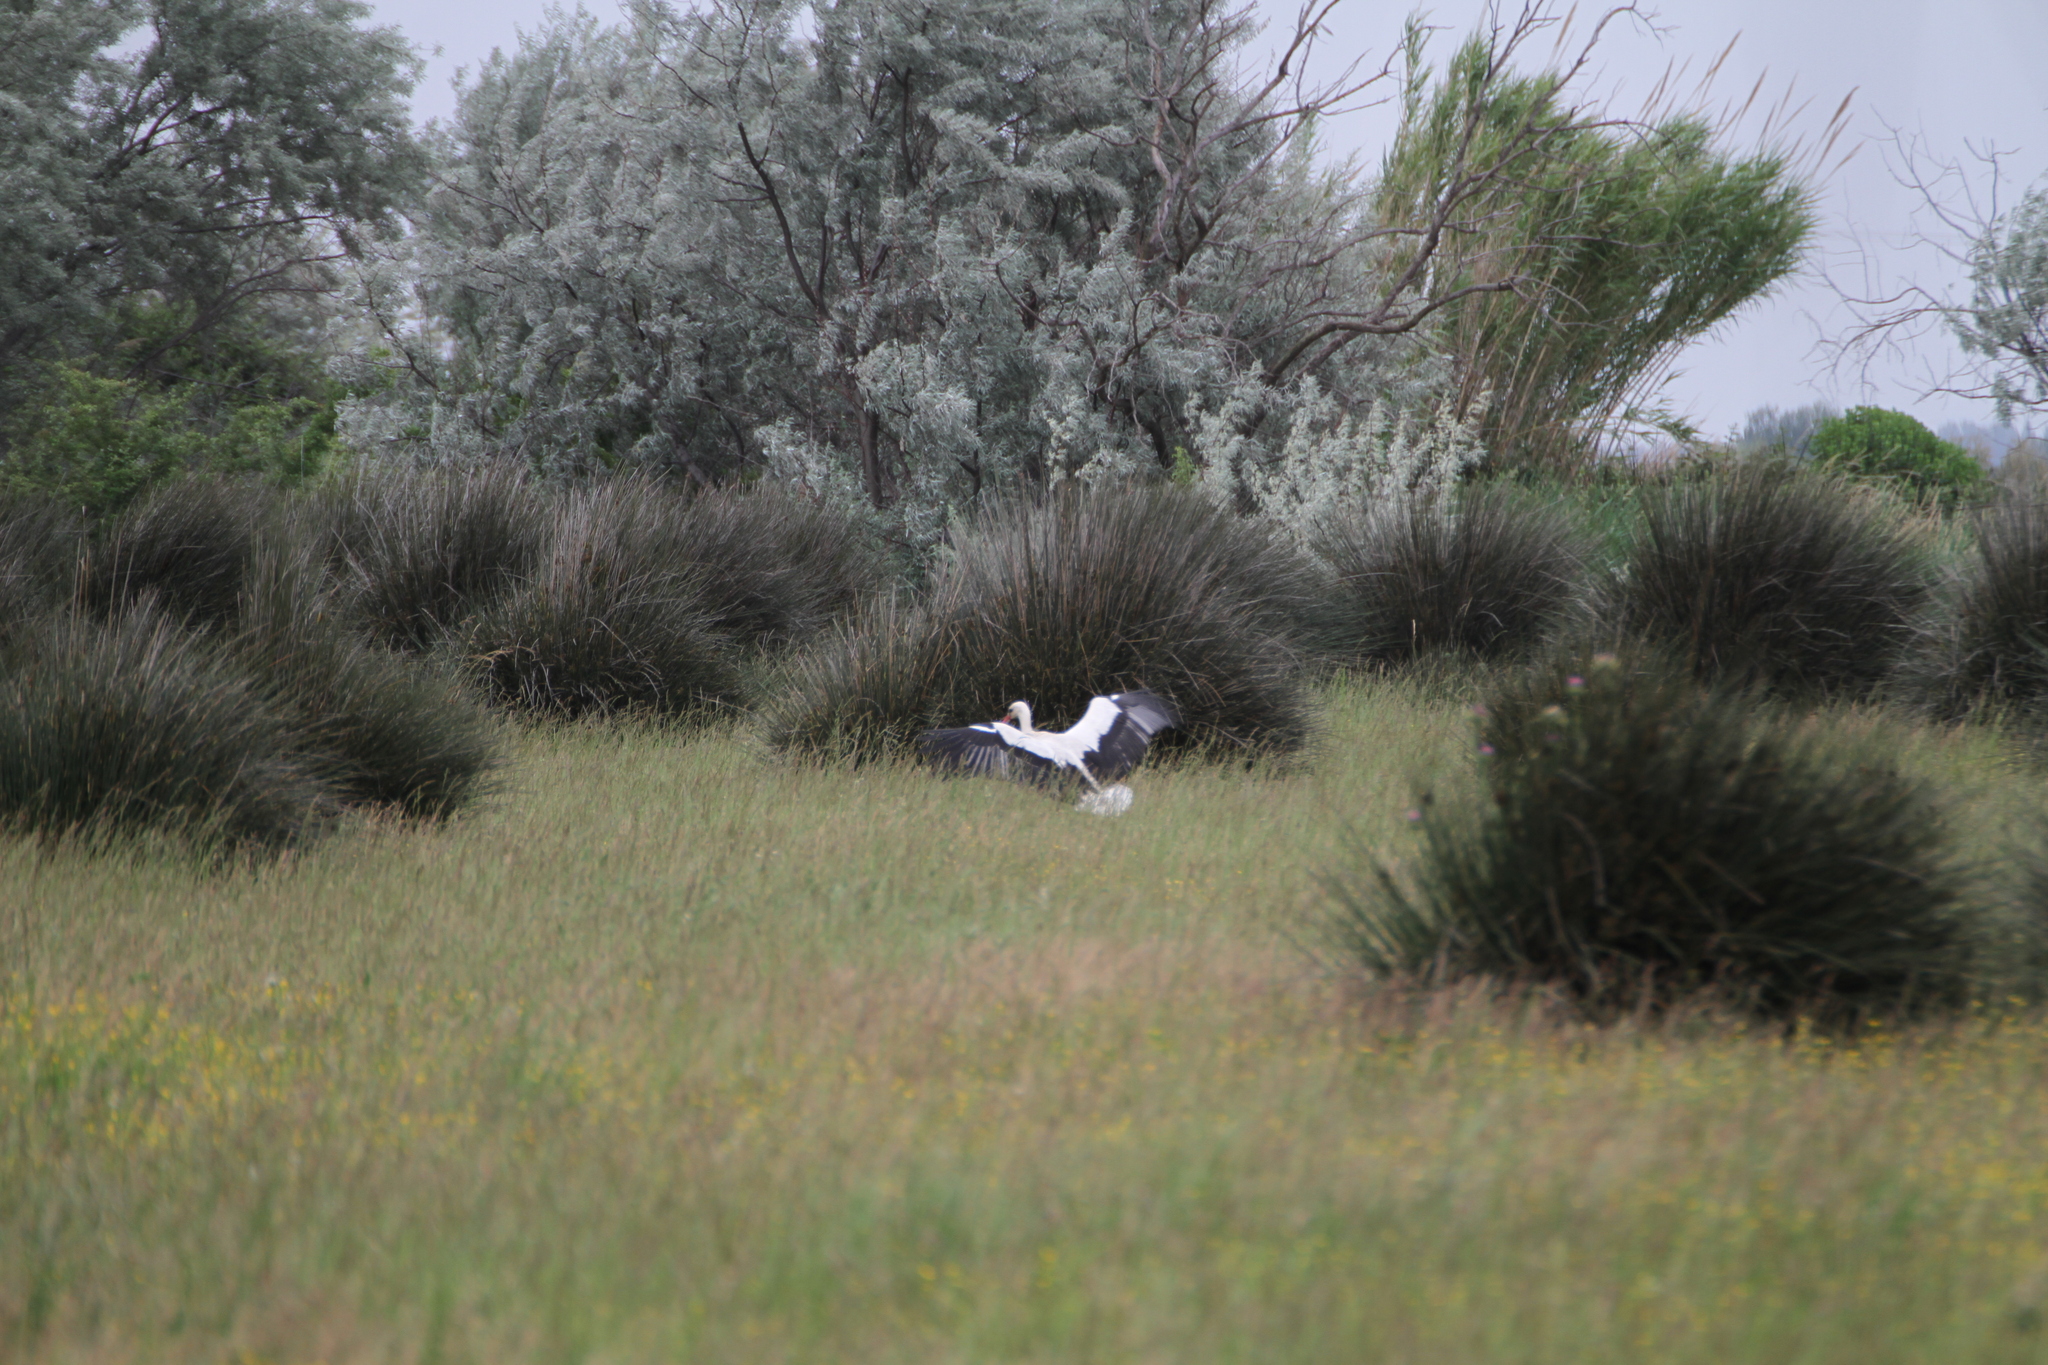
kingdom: Animalia
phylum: Chordata
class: Aves
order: Ciconiiformes
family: Ciconiidae
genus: Ciconia
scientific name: Ciconia ciconia
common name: White stork
